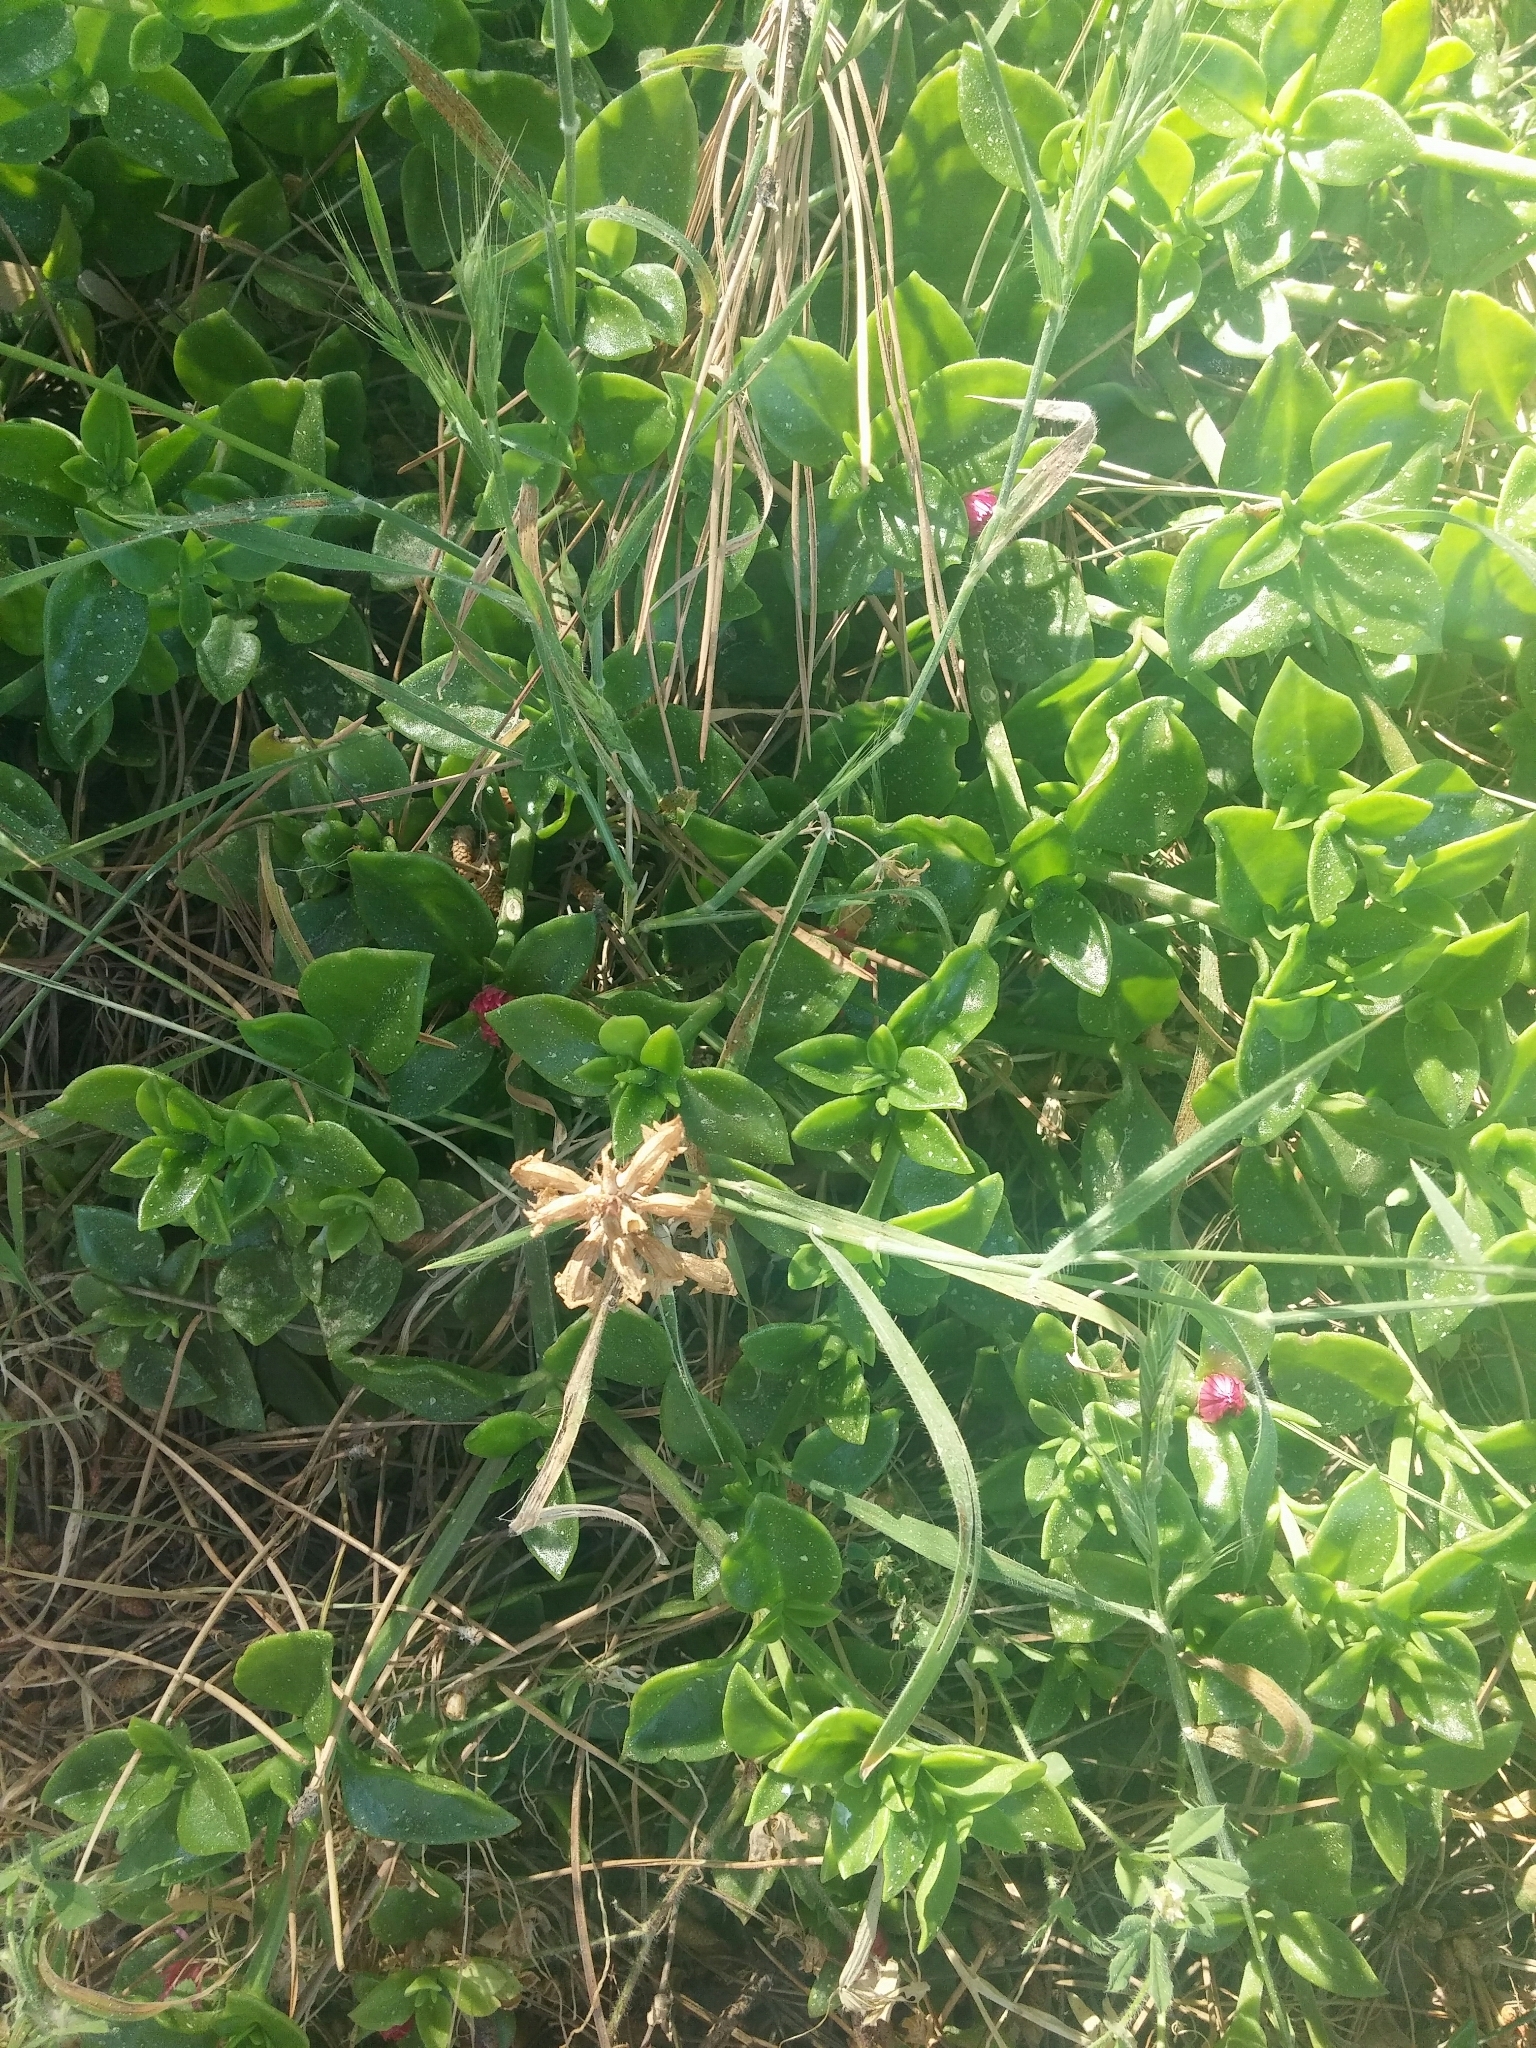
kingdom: Plantae
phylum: Tracheophyta
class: Magnoliopsida
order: Caryophyllales
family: Aizoaceae
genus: Mesembryanthemum
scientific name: Mesembryanthemum cordifolium
